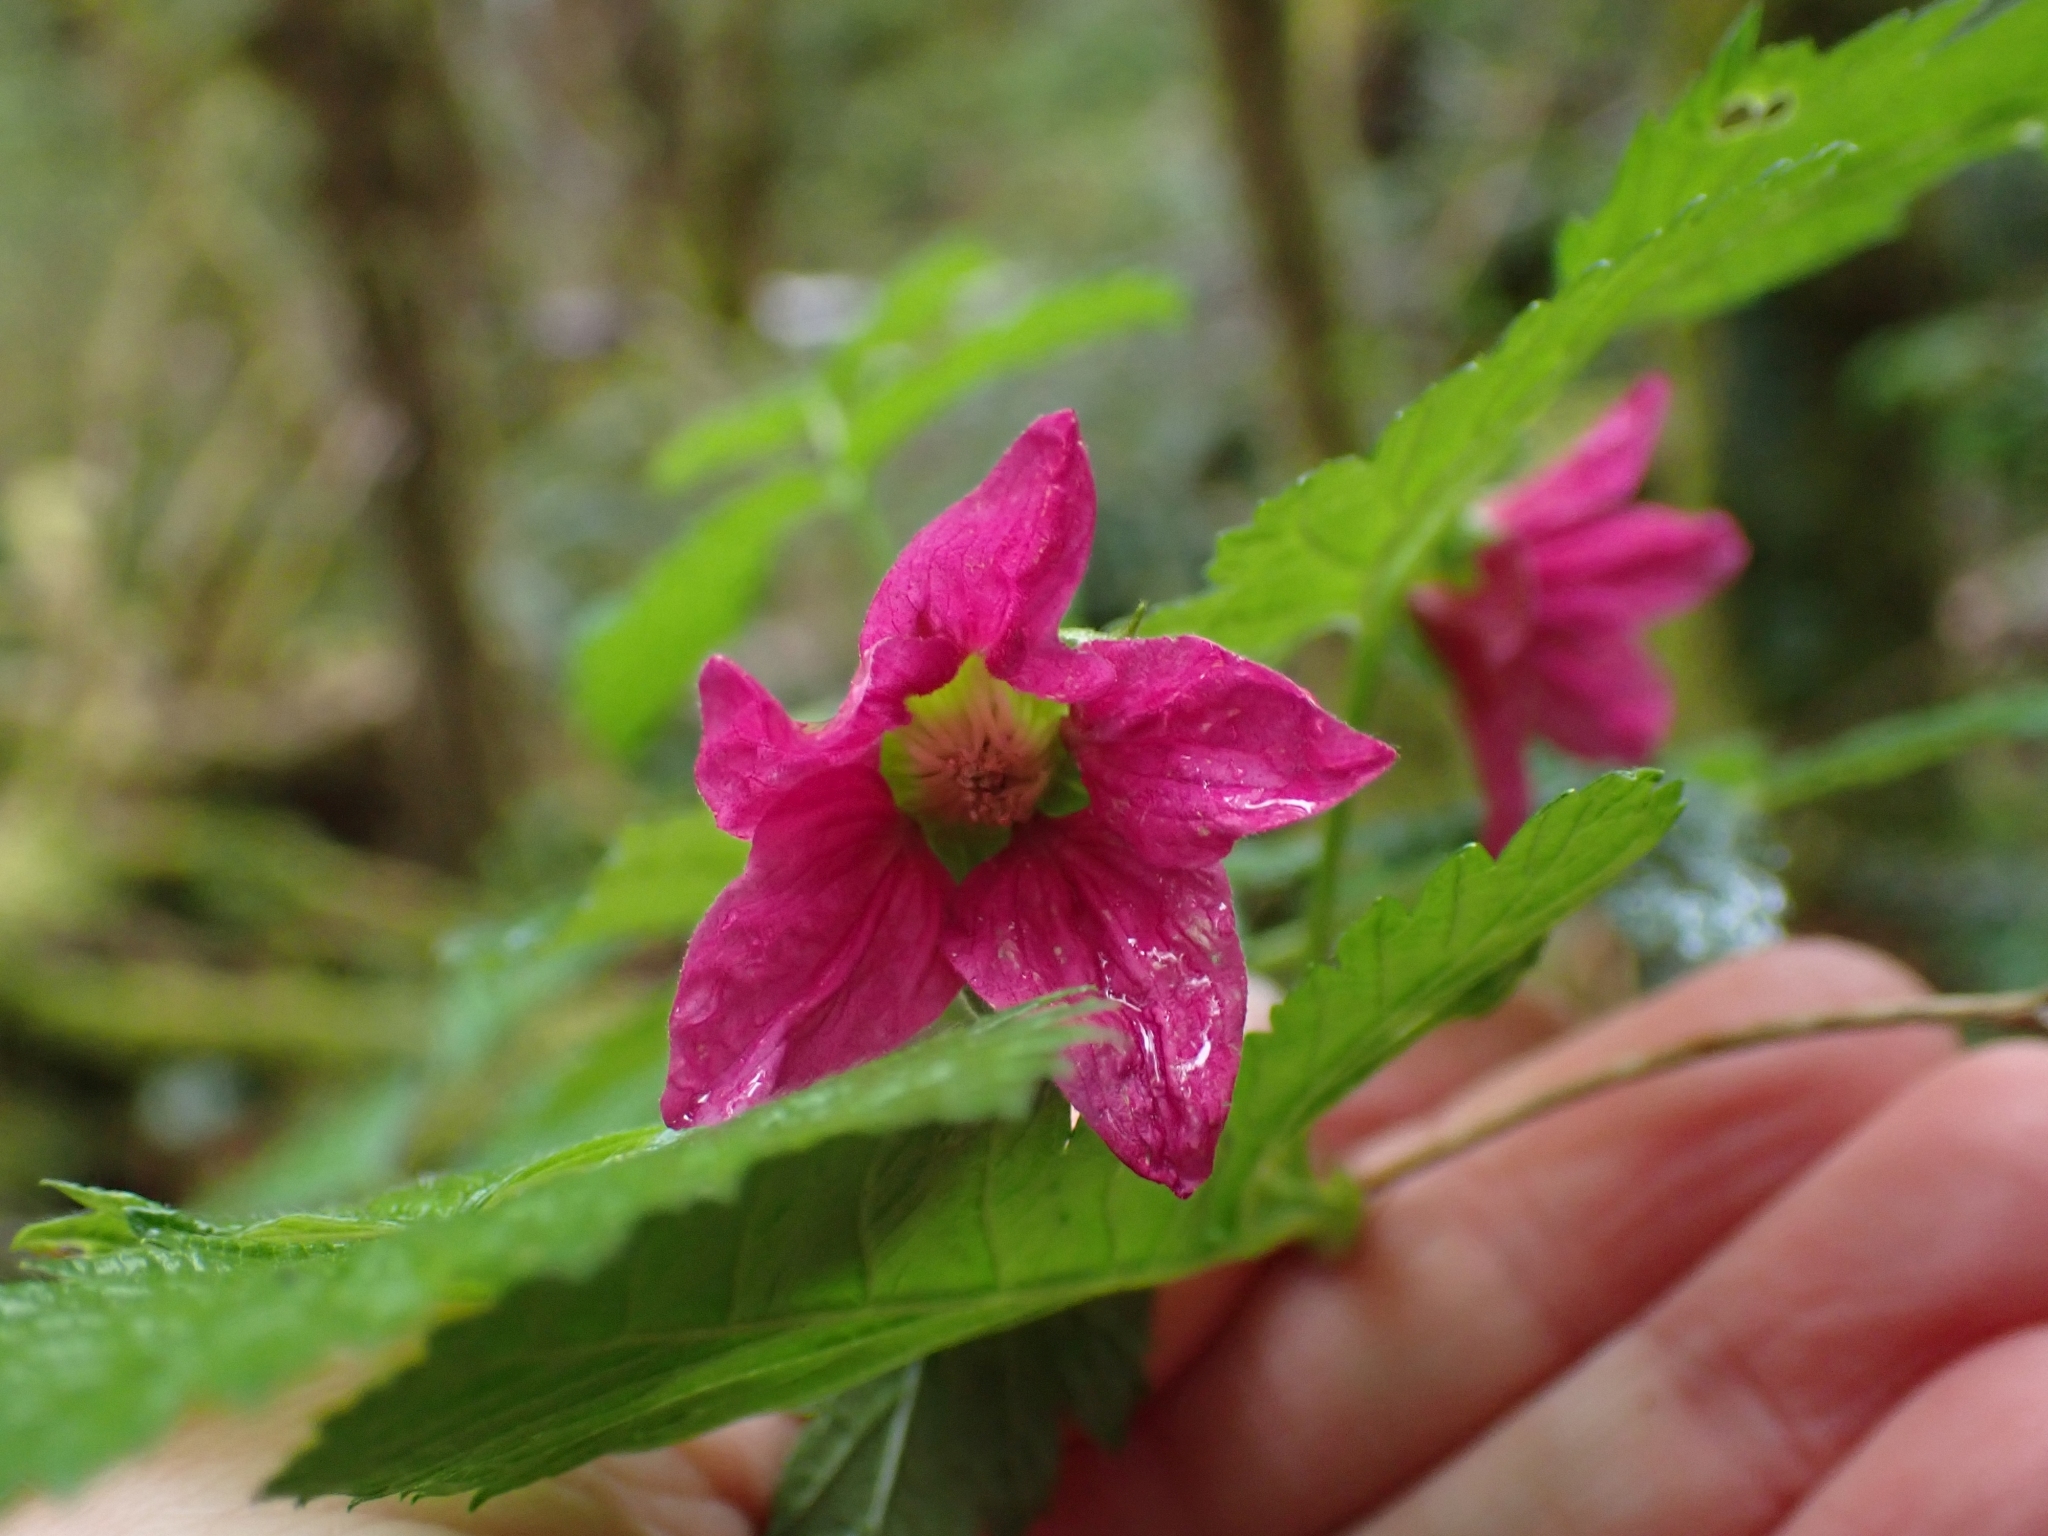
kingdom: Plantae
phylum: Tracheophyta
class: Magnoliopsida
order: Rosales
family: Rosaceae
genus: Rubus
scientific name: Rubus spectabilis
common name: Salmonberry
